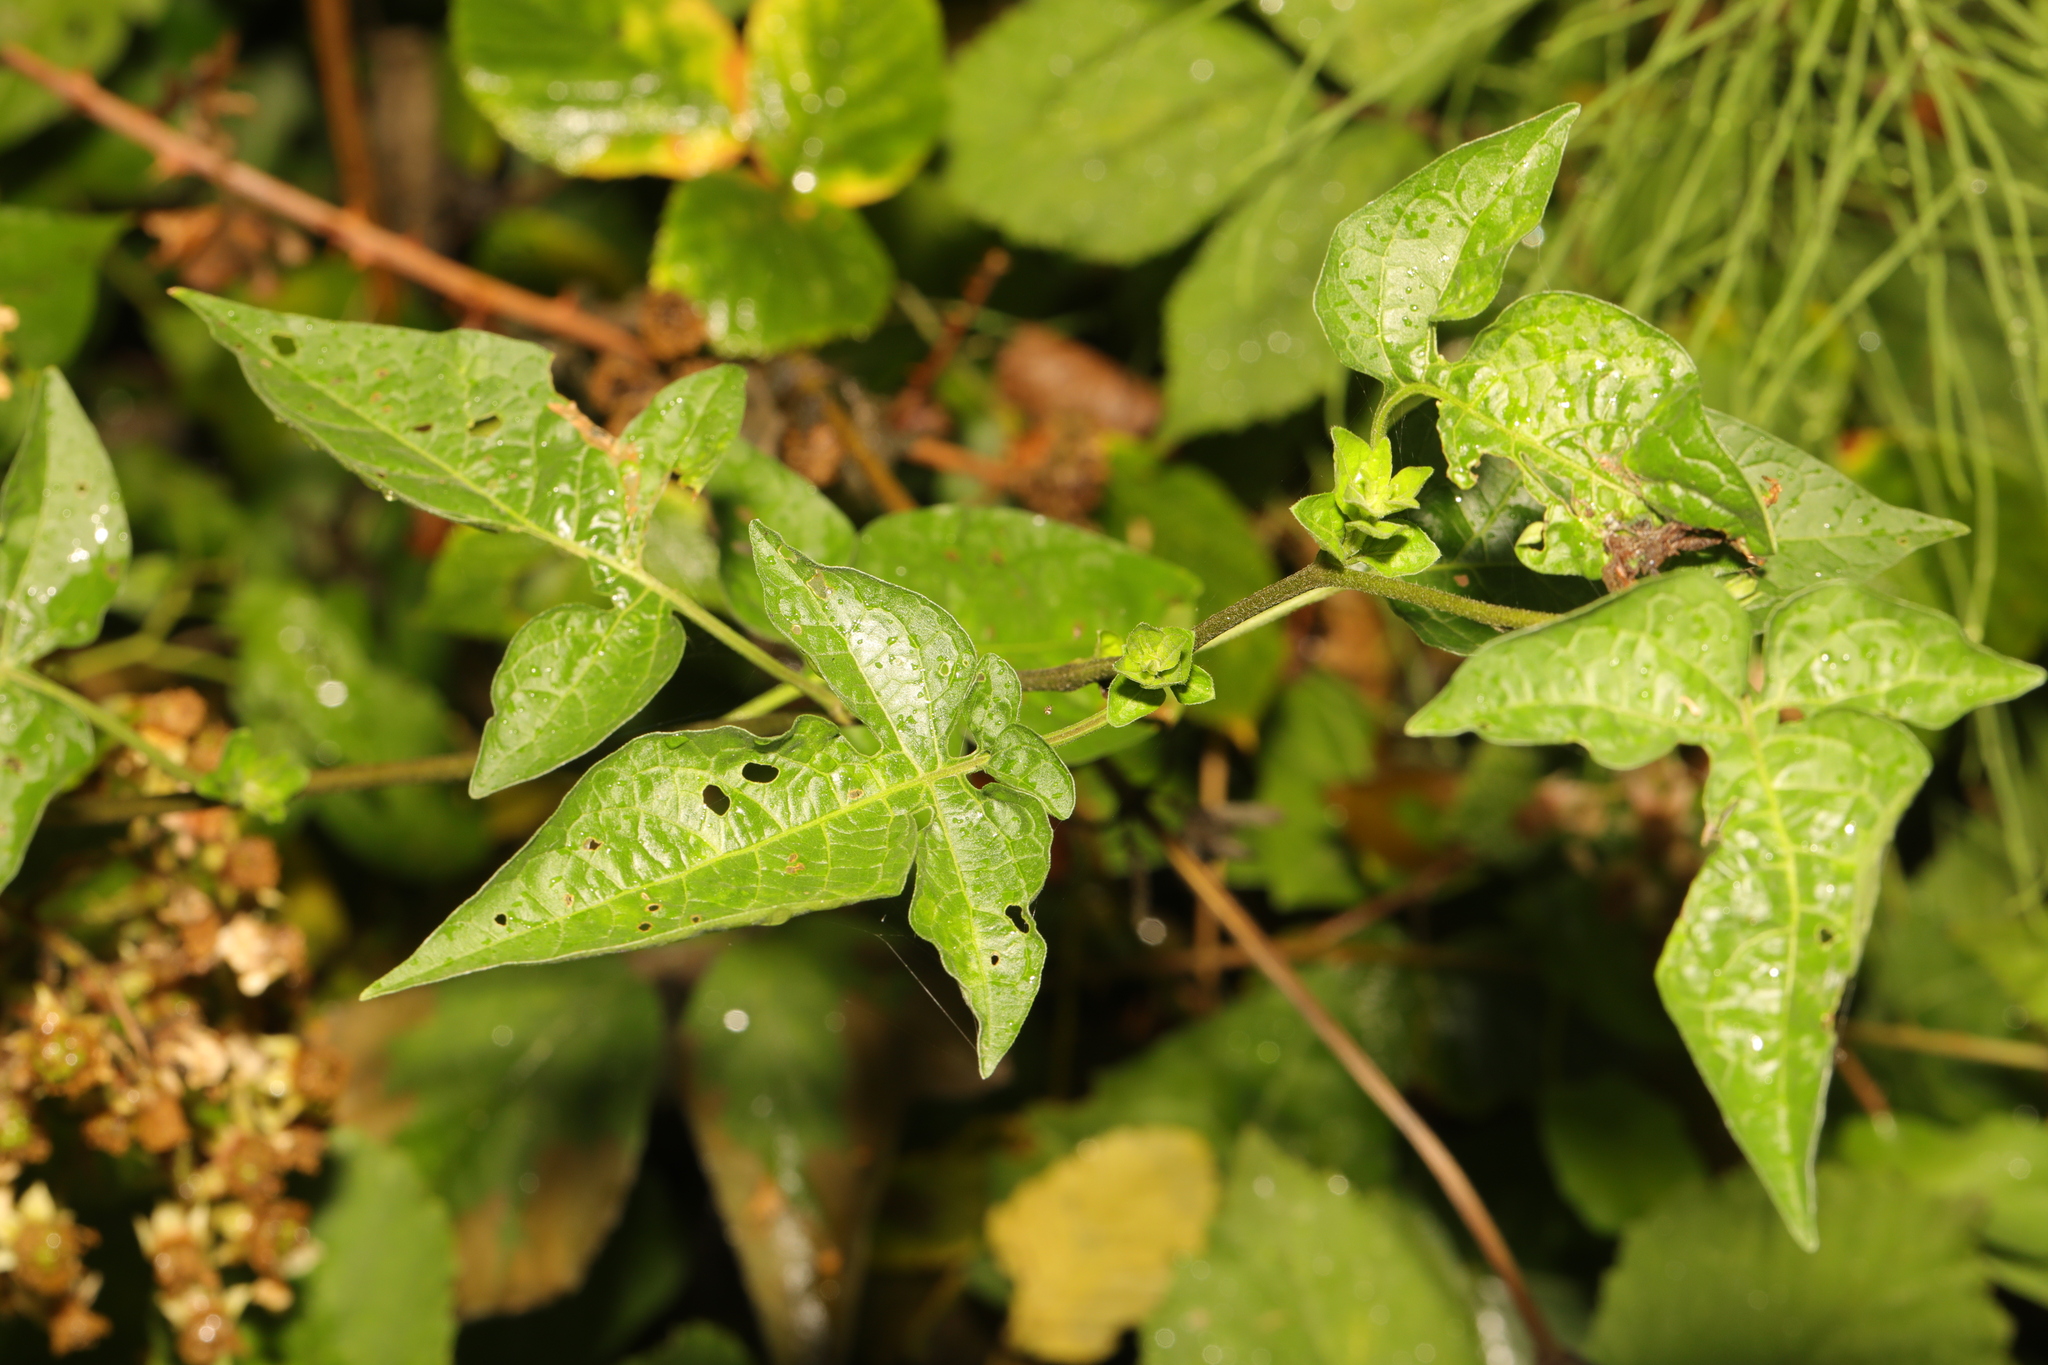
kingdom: Plantae
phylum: Tracheophyta
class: Magnoliopsida
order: Solanales
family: Solanaceae
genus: Solanum
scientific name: Solanum dulcamara
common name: Climbing nightshade
